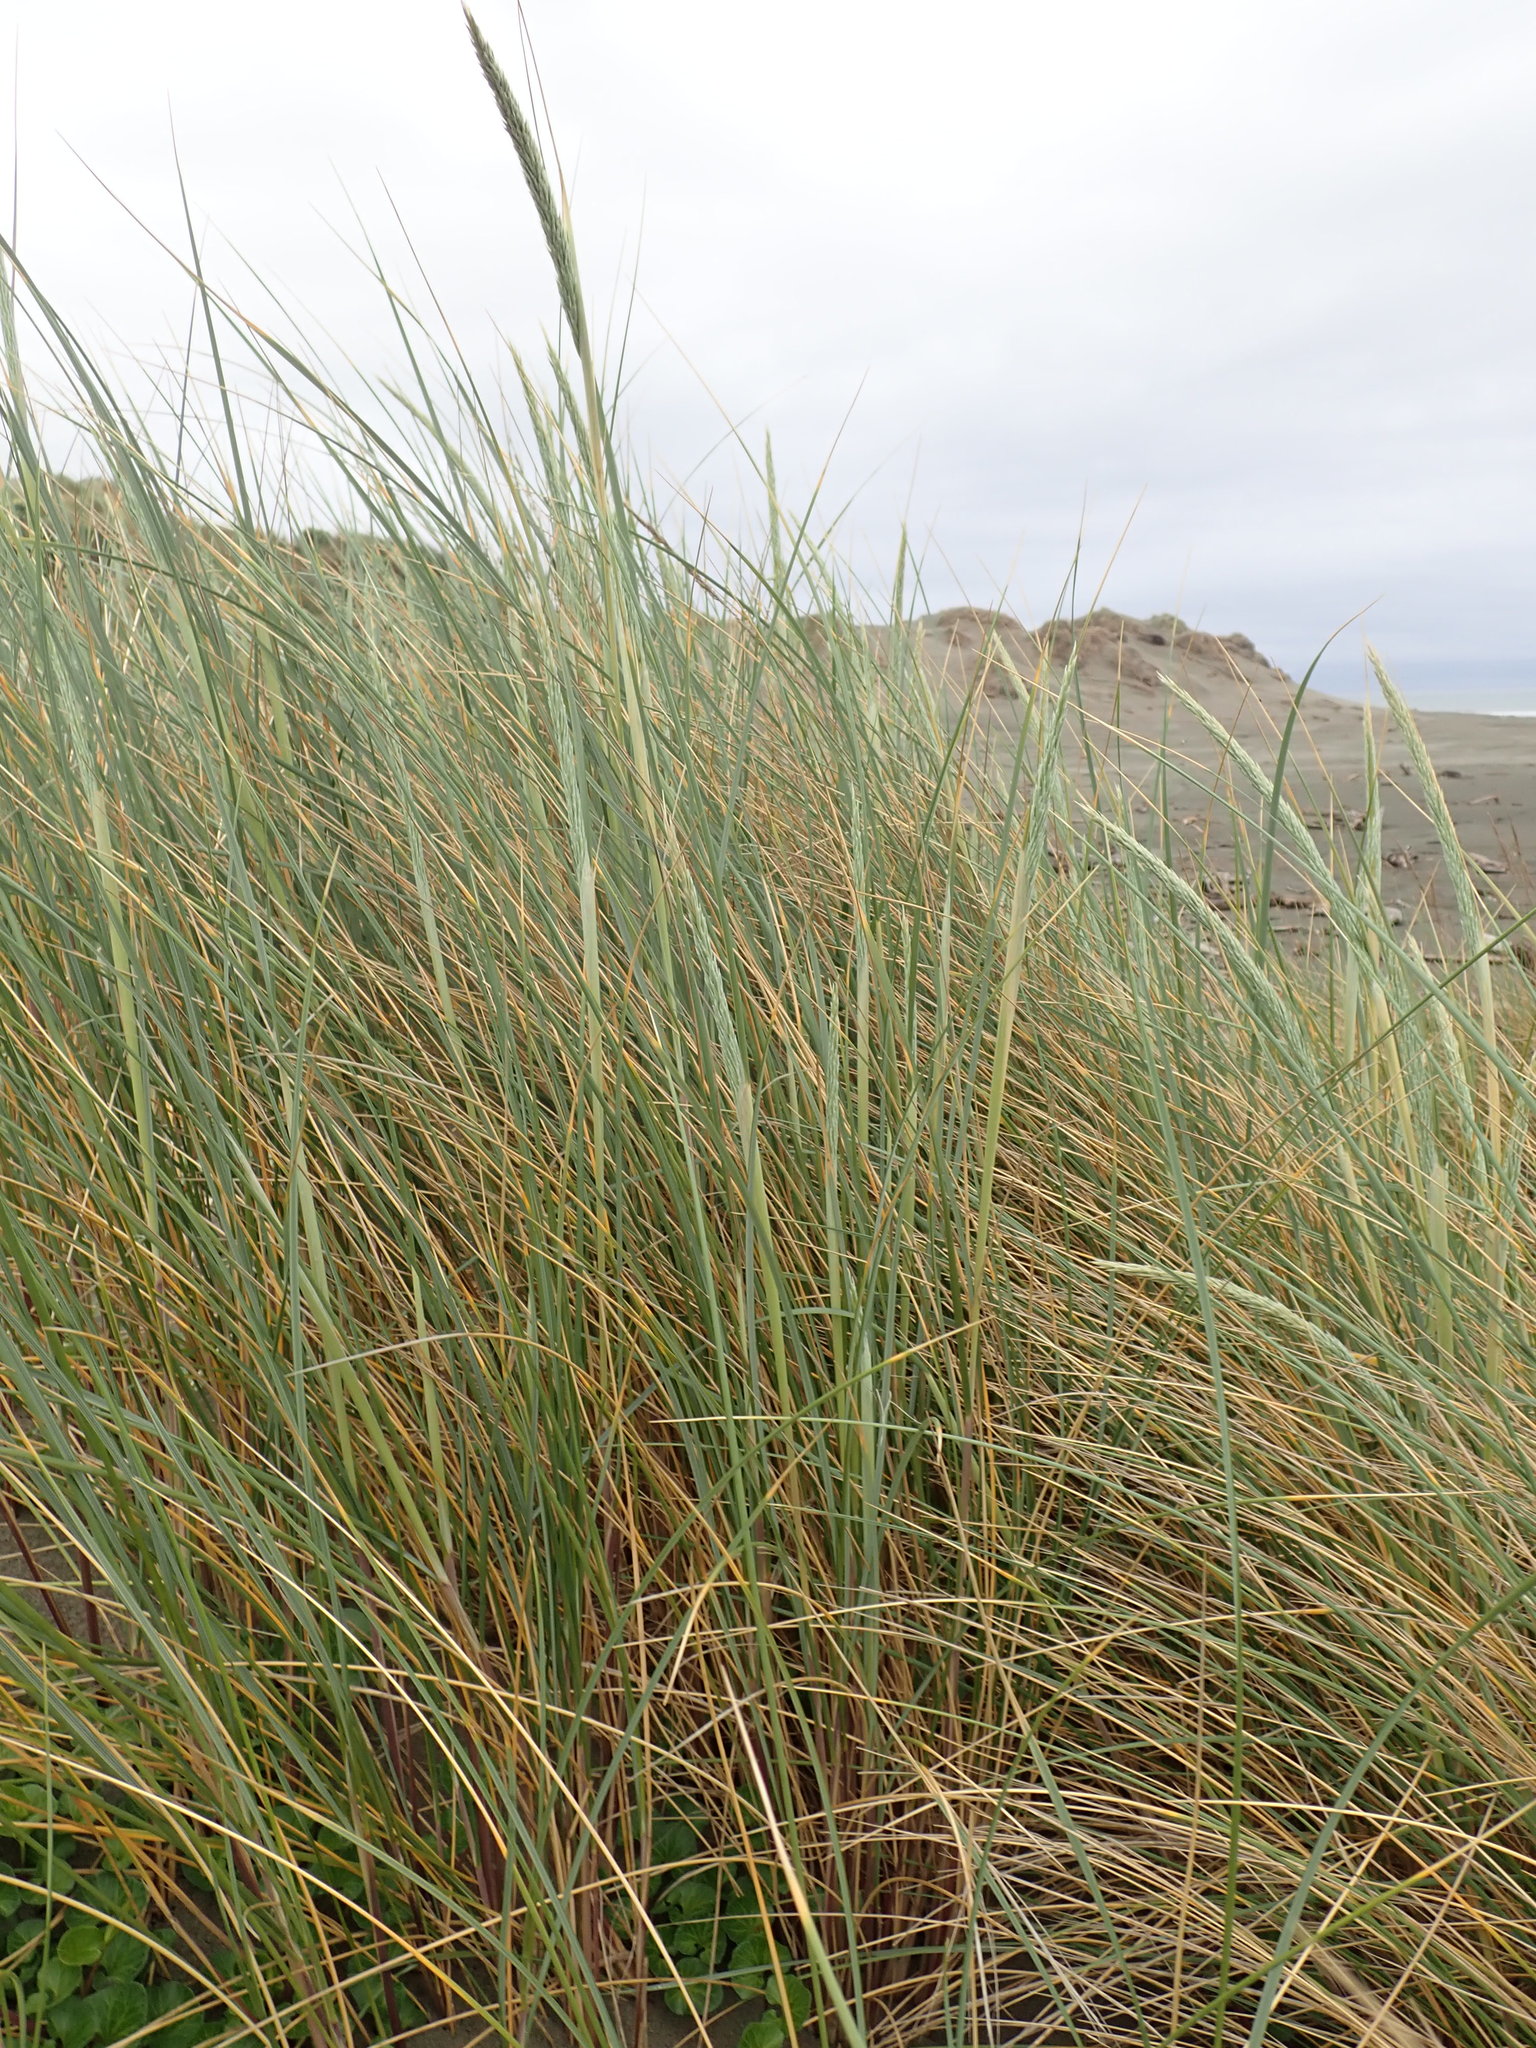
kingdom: Plantae
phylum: Tracheophyta
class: Liliopsida
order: Poales
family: Poaceae
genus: Calamagrostis
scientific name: Calamagrostis arenaria
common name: European beachgrass
